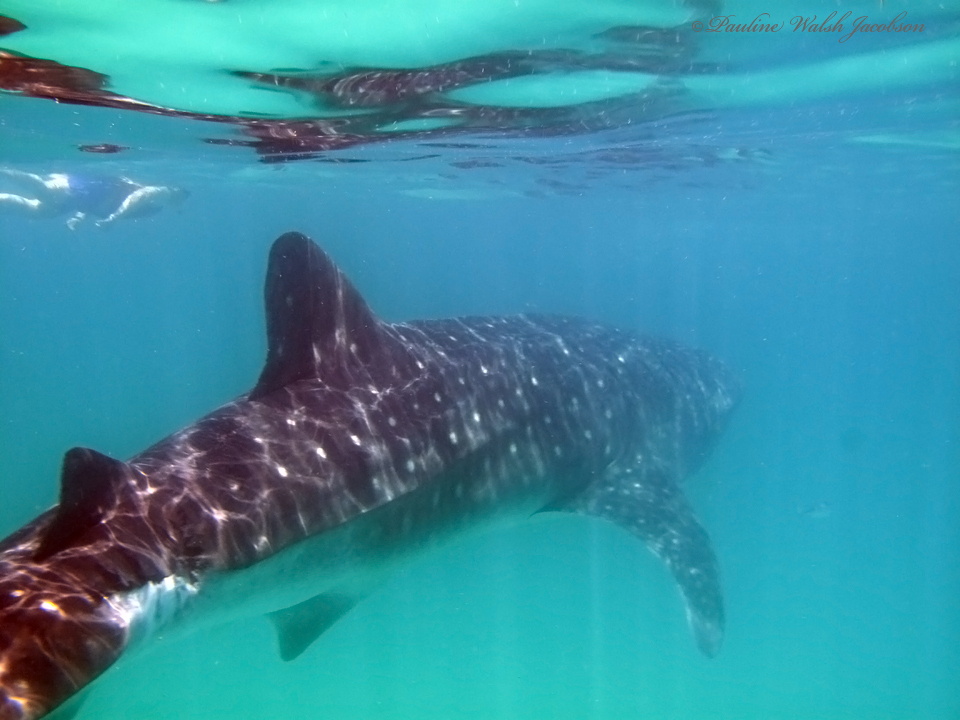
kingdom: Animalia
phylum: Chordata
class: Elasmobranchii
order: Orectolobiformes
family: Rhincodontidae
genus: Rhincodon
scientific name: Rhincodon typus
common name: Whale shark
